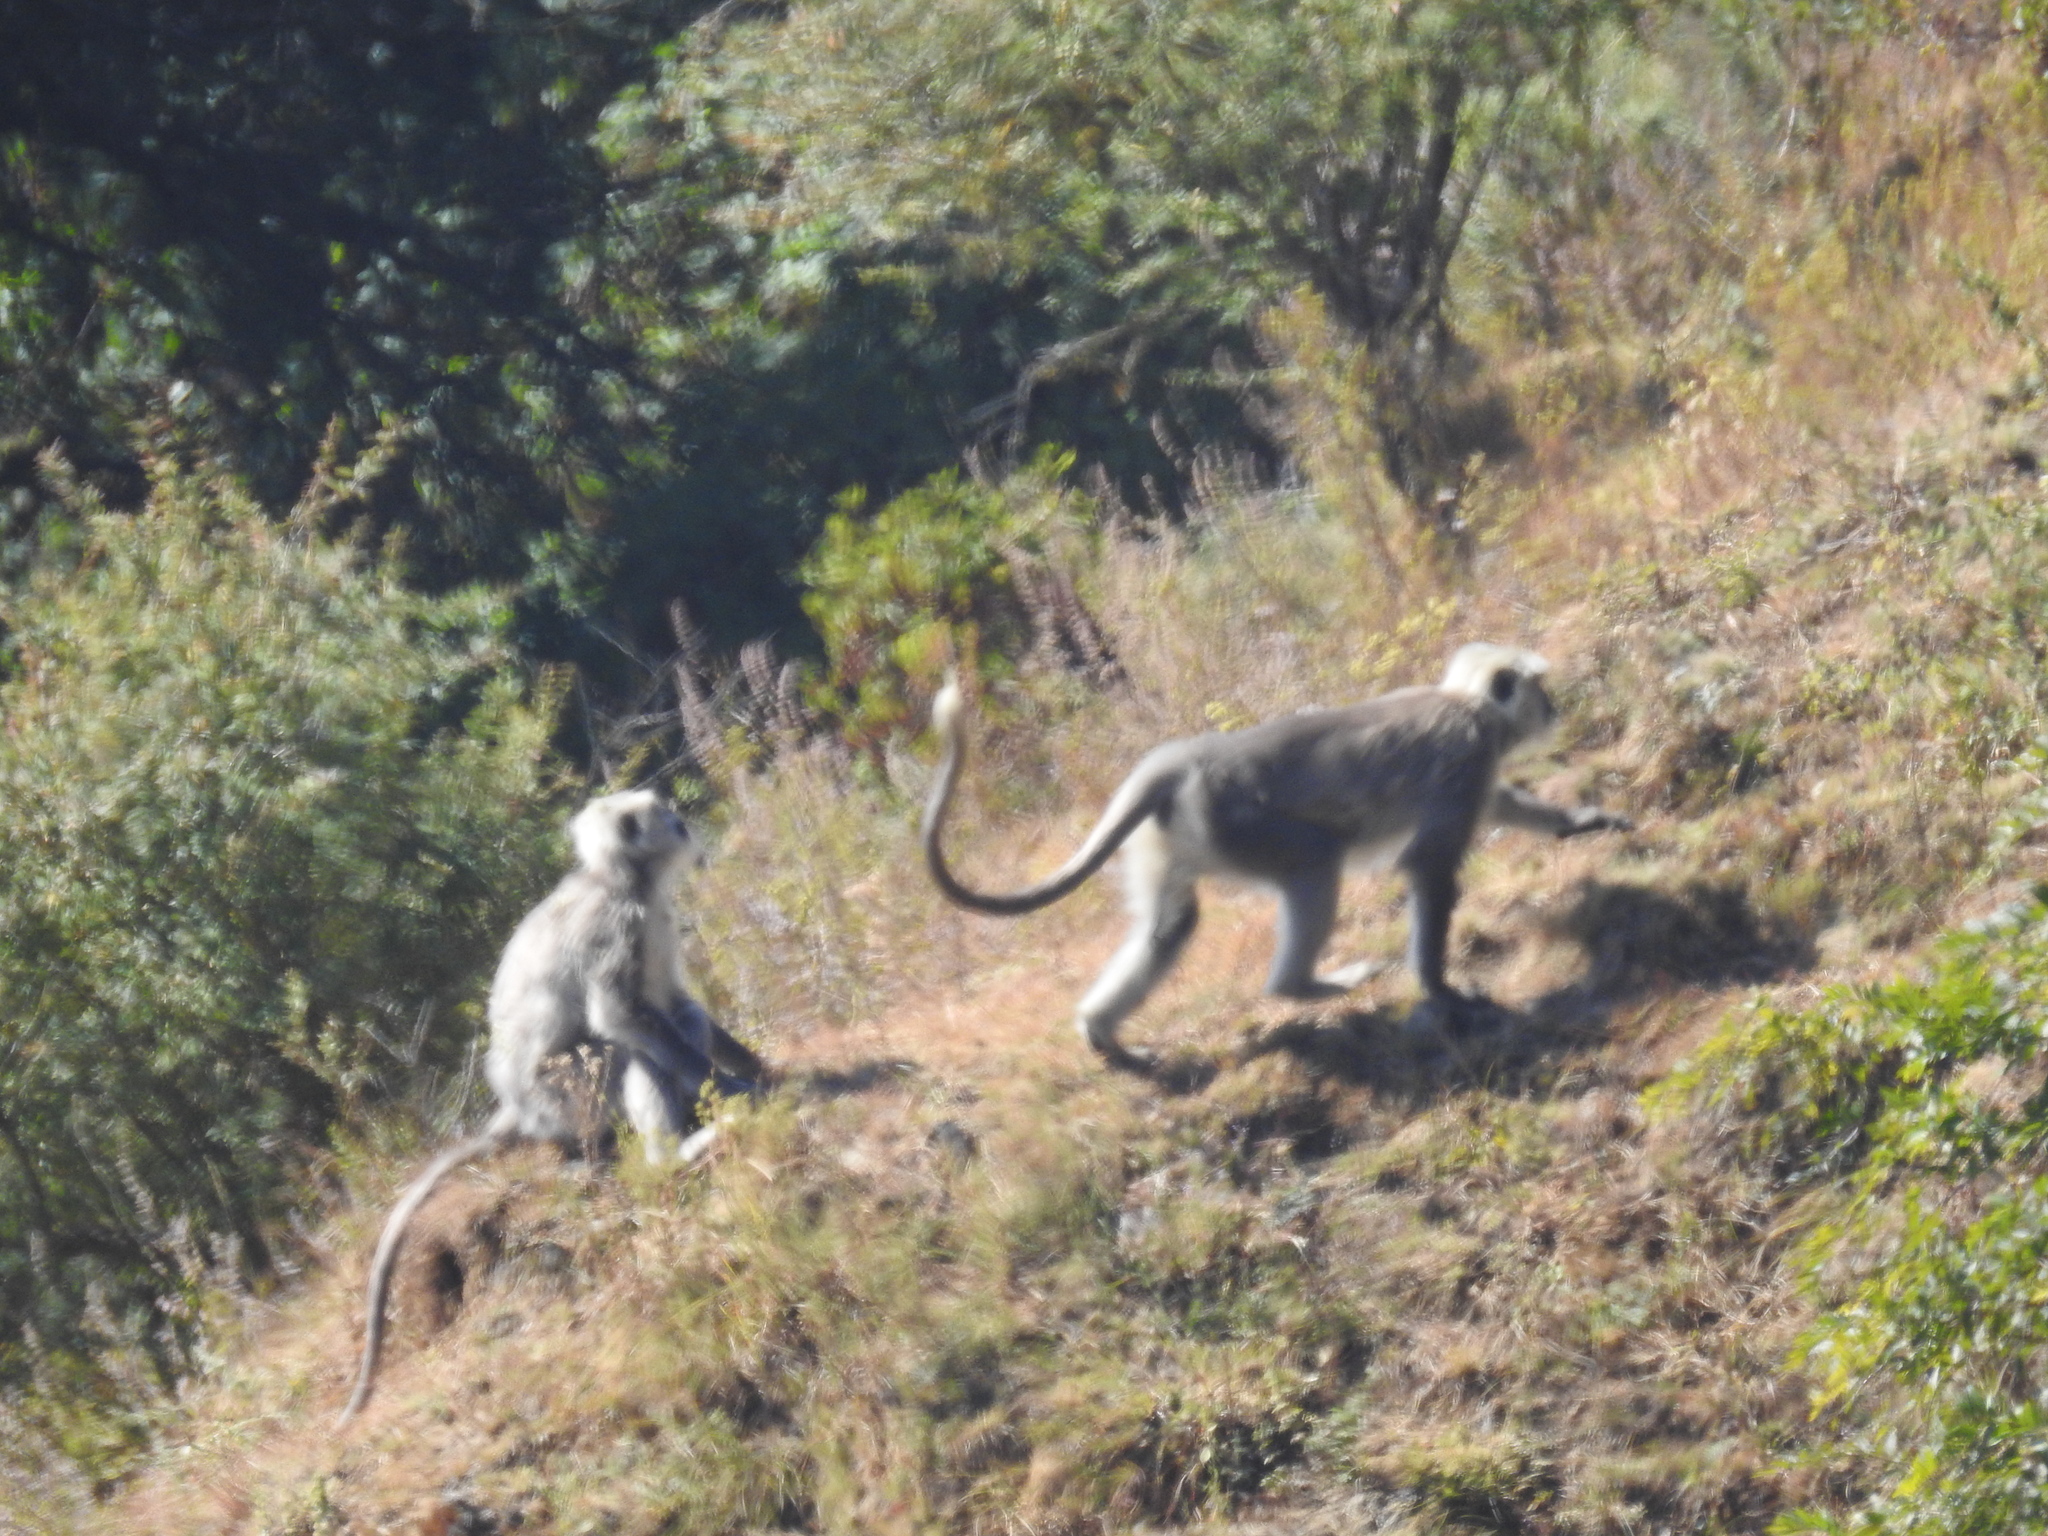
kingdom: Animalia
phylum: Chordata
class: Mammalia
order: Primates
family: Cercopithecidae
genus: Semnopithecus
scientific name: Semnopithecus schistaceus
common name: Nepal gray langur
